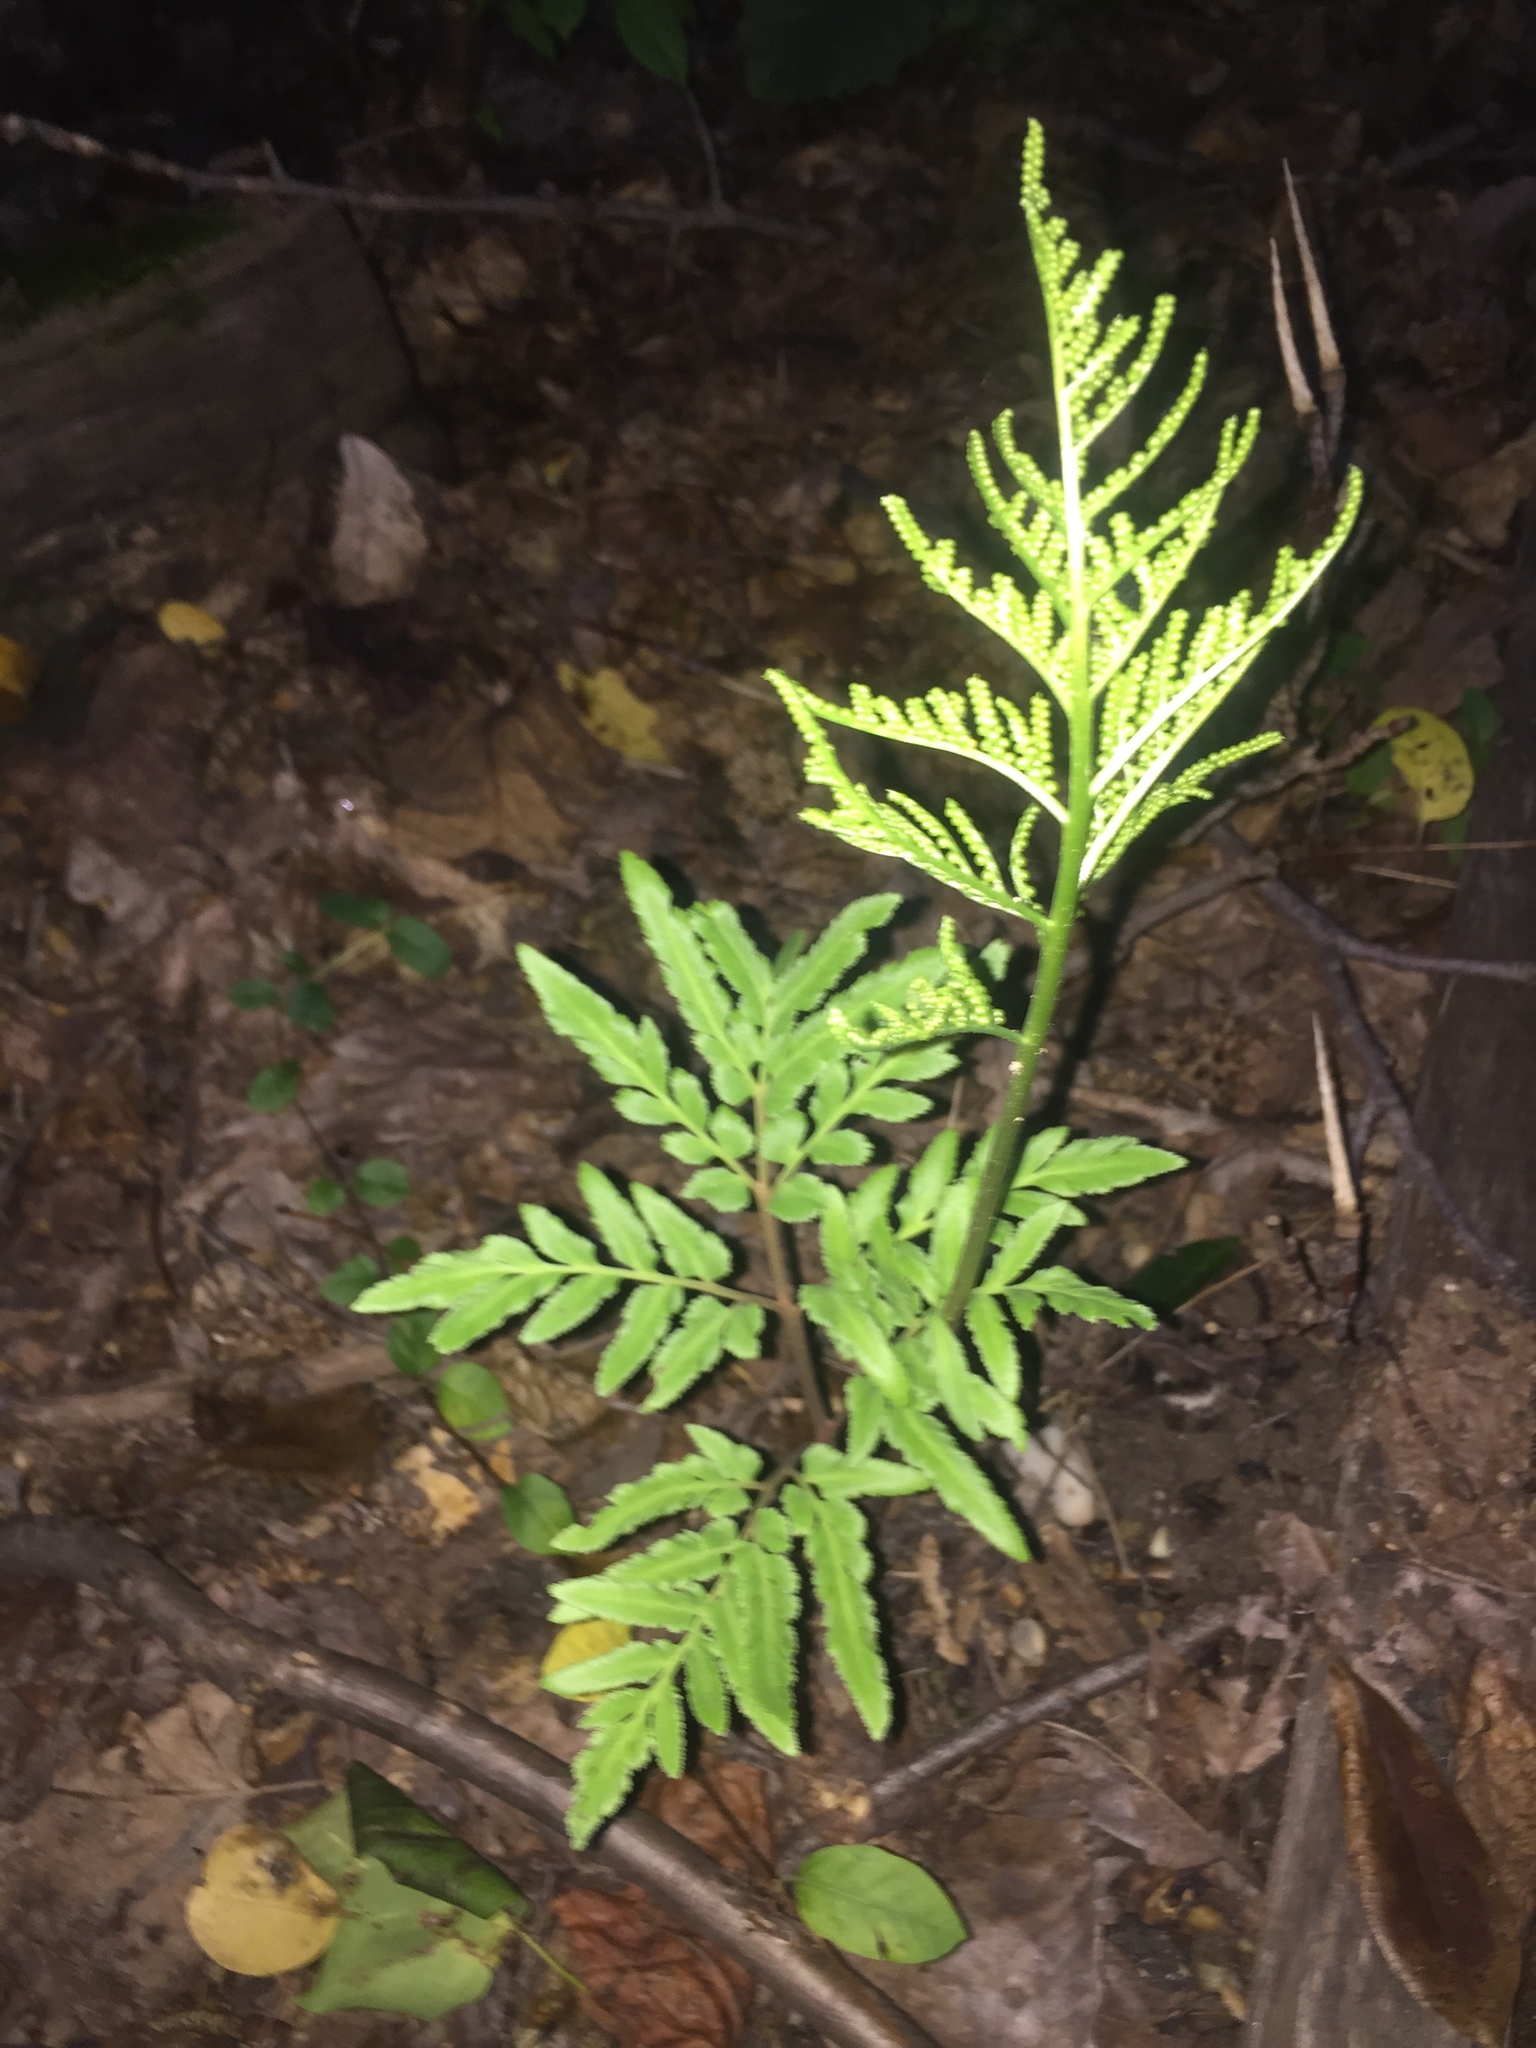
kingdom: Plantae
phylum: Tracheophyta
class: Polypodiopsida
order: Ophioglossales
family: Ophioglossaceae
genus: Sceptridium
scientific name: Sceptridium dissectum
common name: Cut-leaved grapefern
